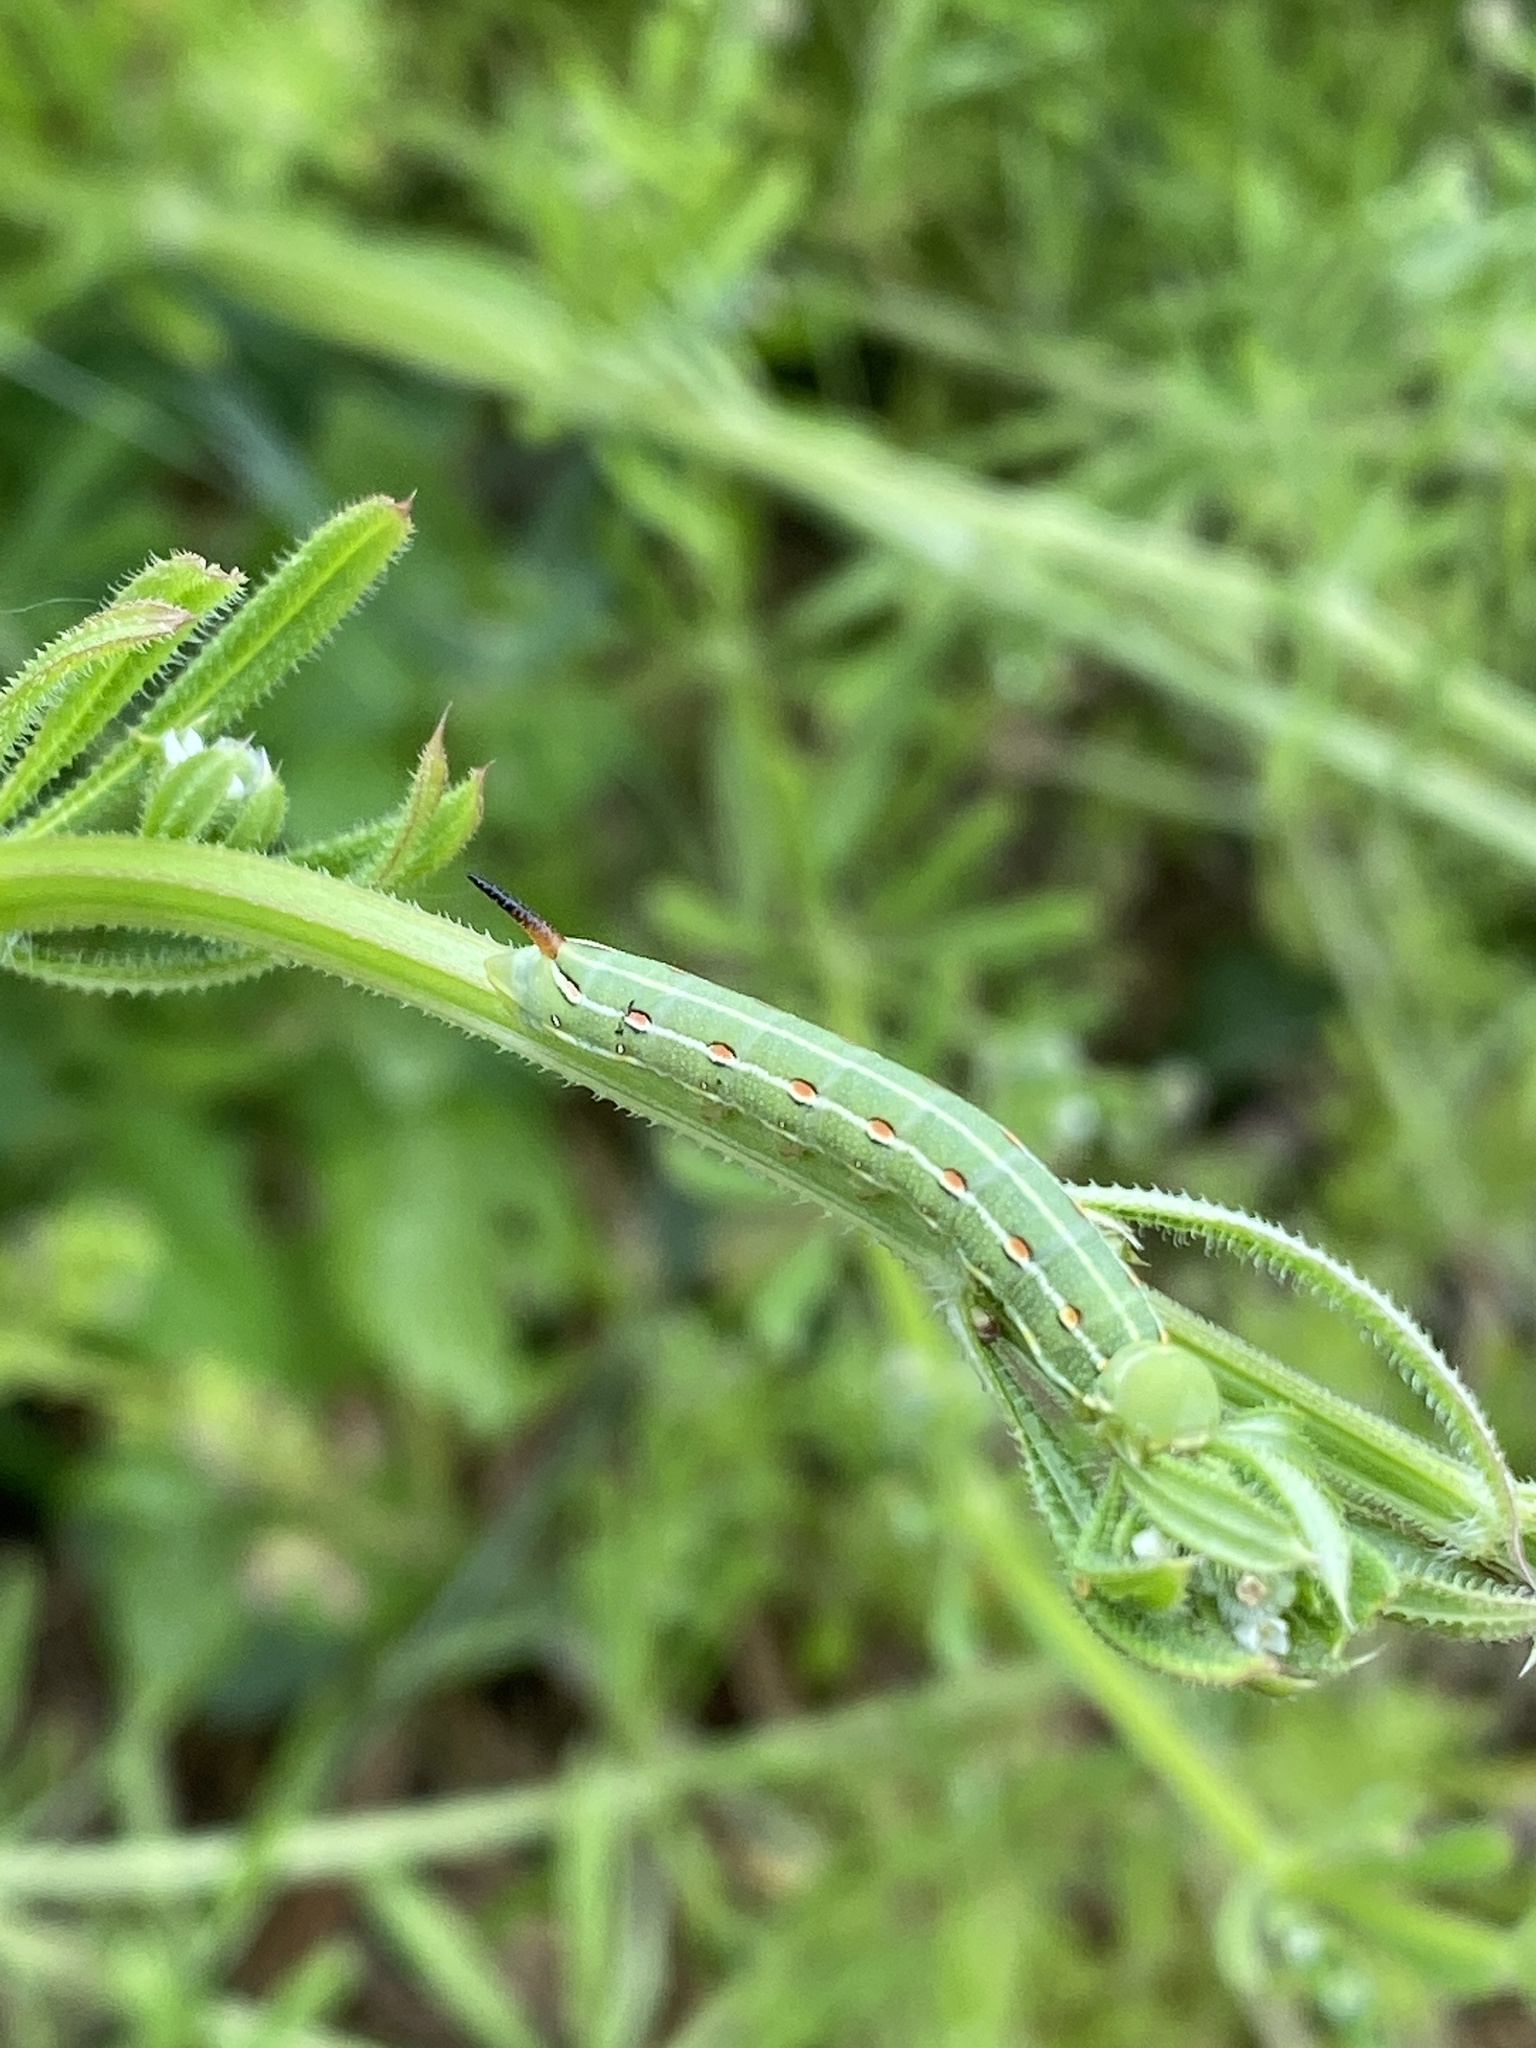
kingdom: Animalia
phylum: Arthropoda
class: Insecta
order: Lepidoptera
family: Sphingidae
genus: Hyles
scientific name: Hyles lineata
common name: White-lined sphinx
